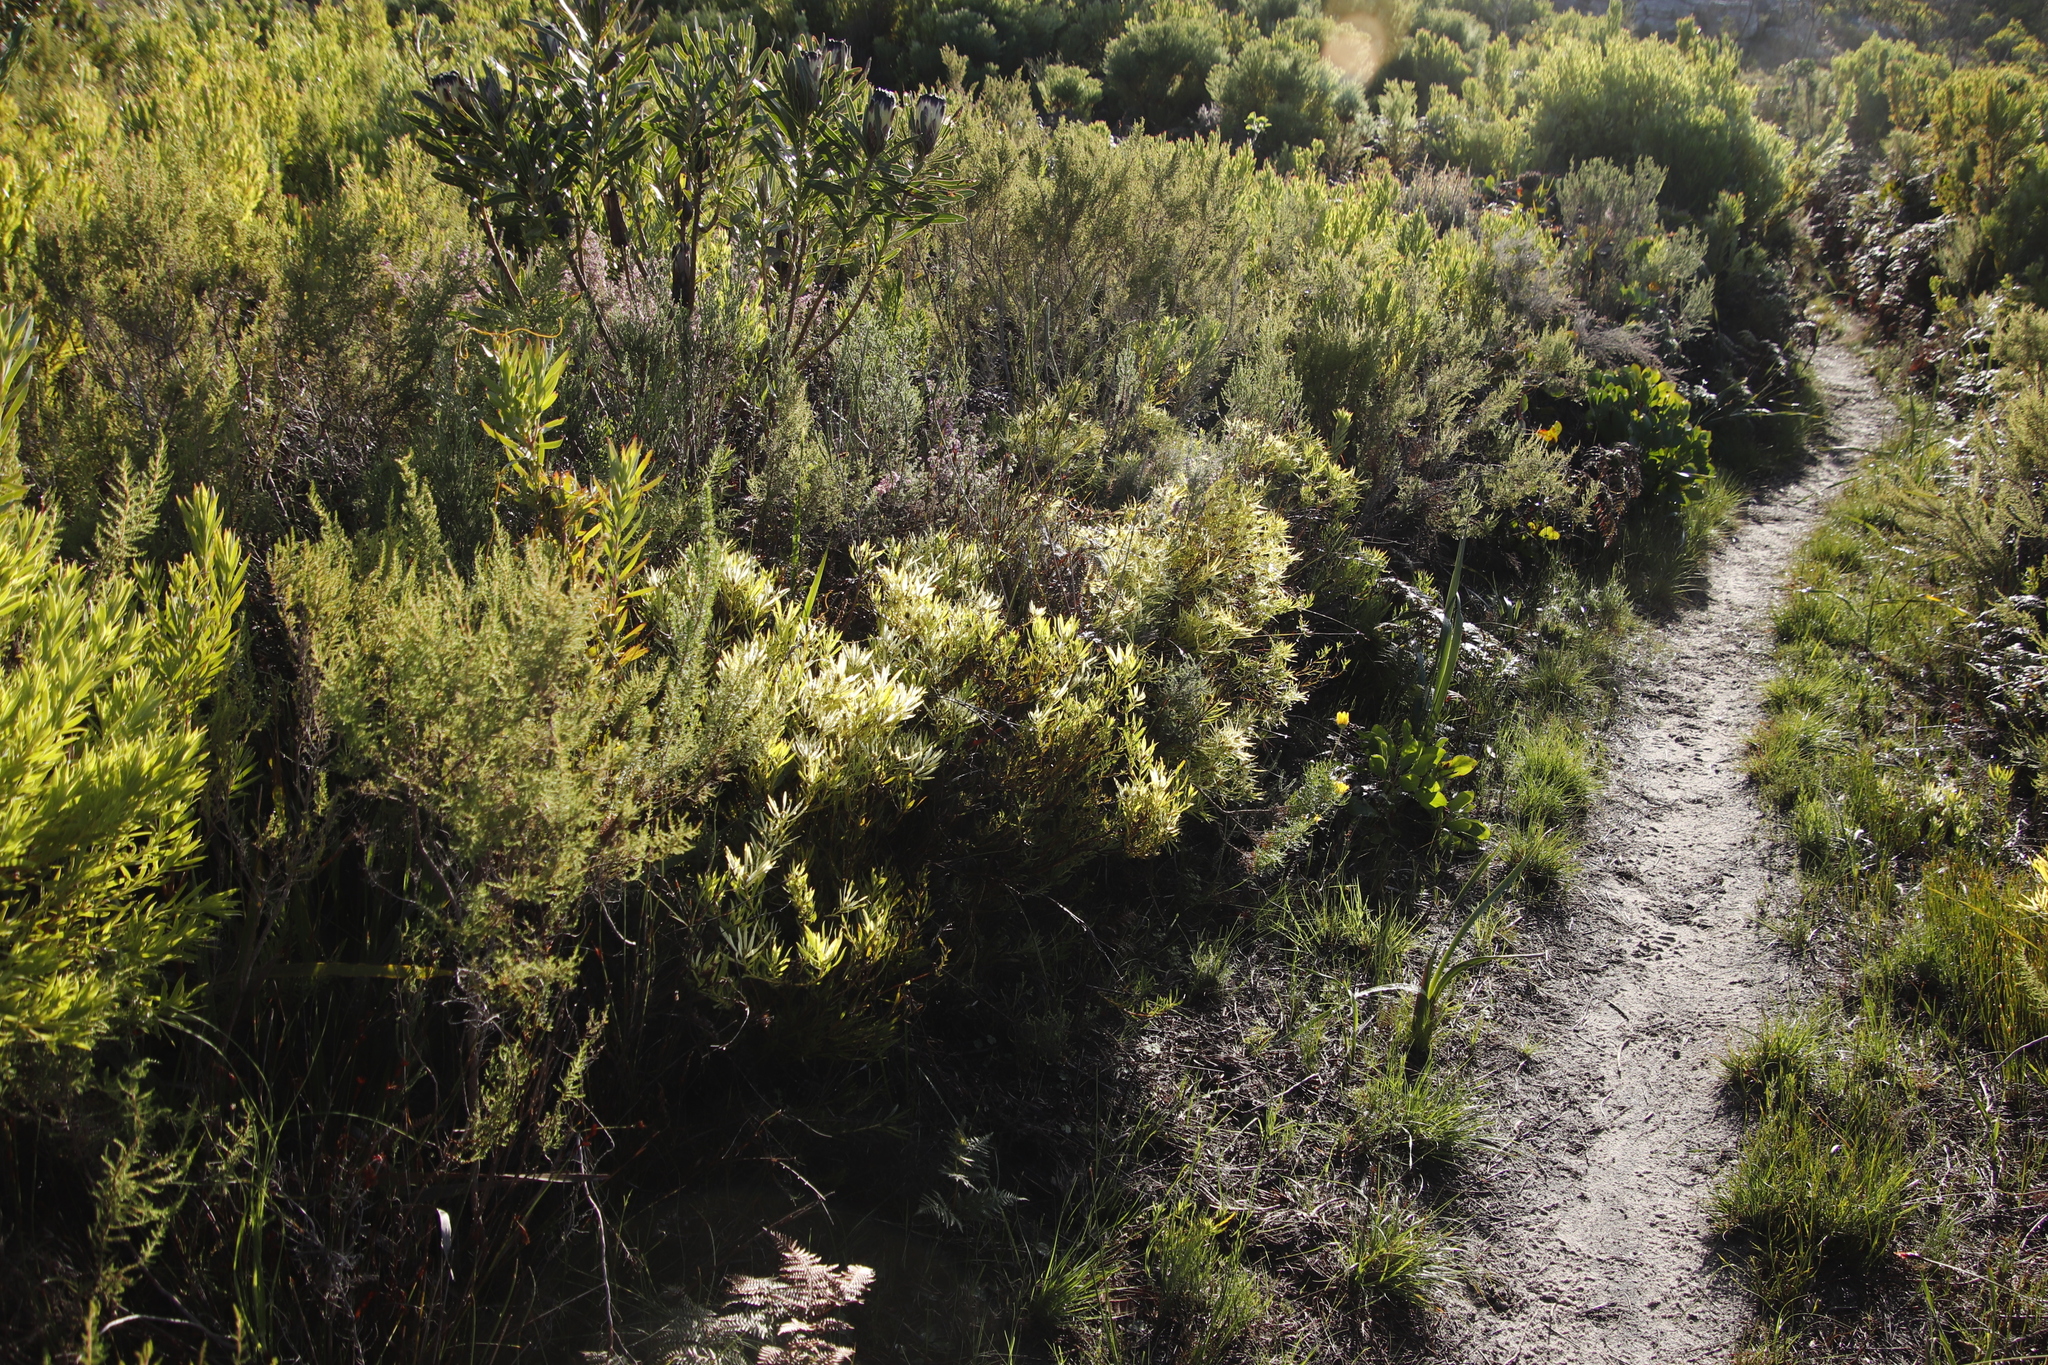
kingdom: Plantae
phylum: Tracheophyta
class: Magnoliopsida
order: Proteales
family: Proteaceae
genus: Leucadendron
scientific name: Leucadendron salignum
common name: Common sunshine conebush
